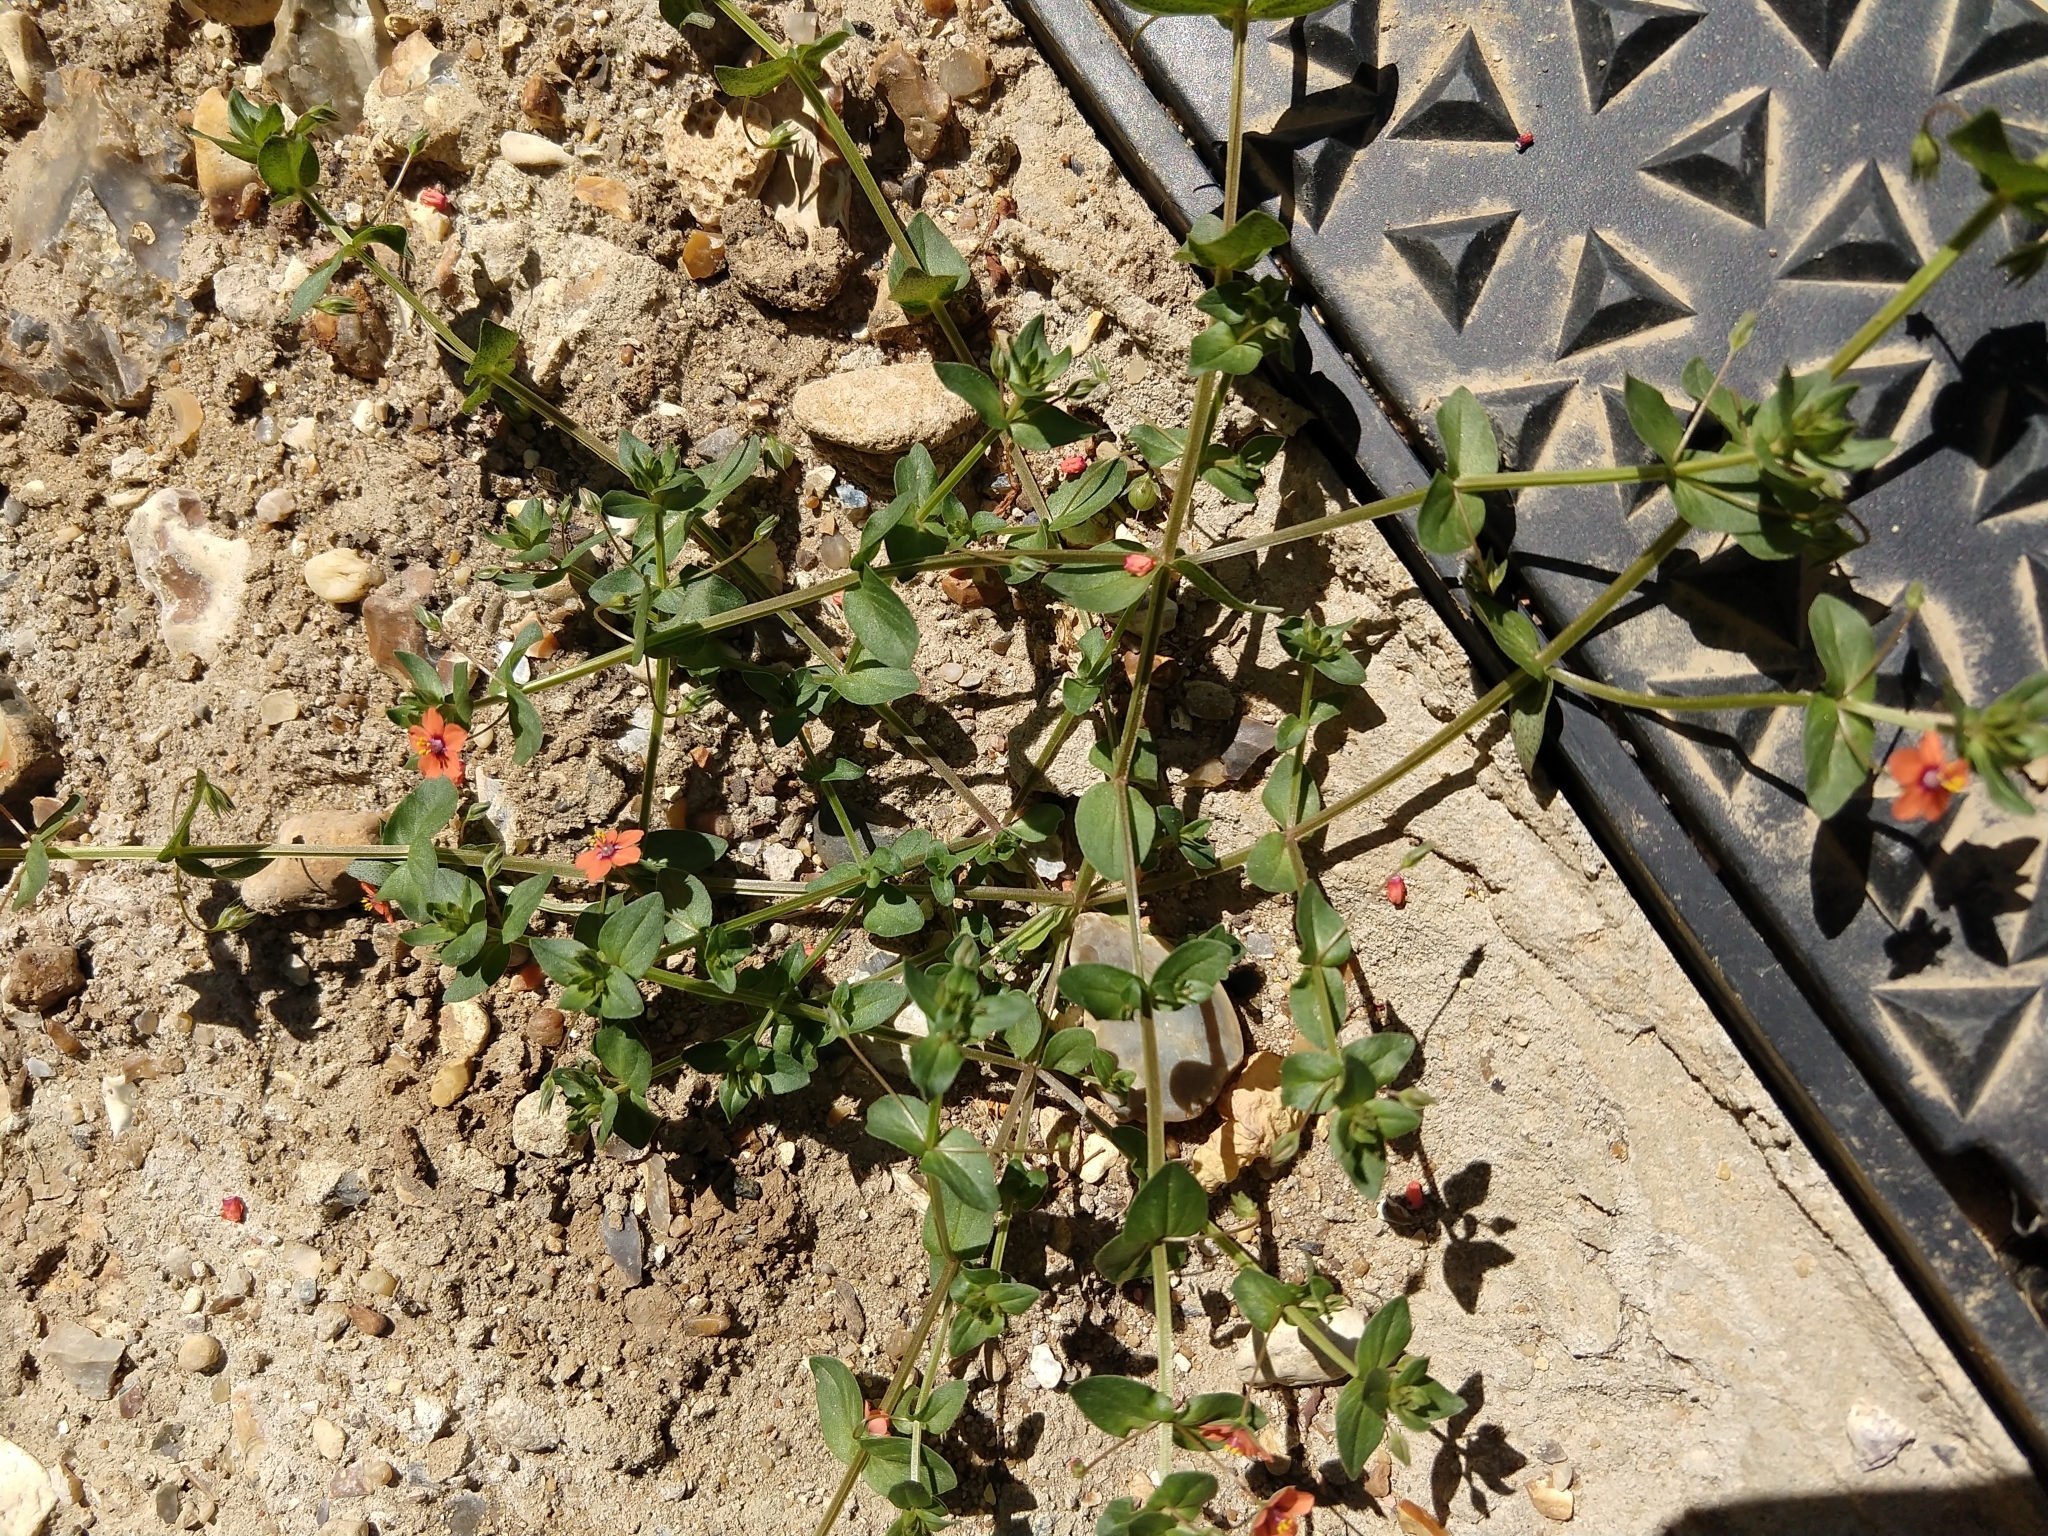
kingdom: Plantae
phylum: Tracheophyta
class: Magnoliopsida
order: Ericales
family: Primulaceae
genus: Lysimachia
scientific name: Lysimachia arvensis
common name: Scarlet pimpernel
